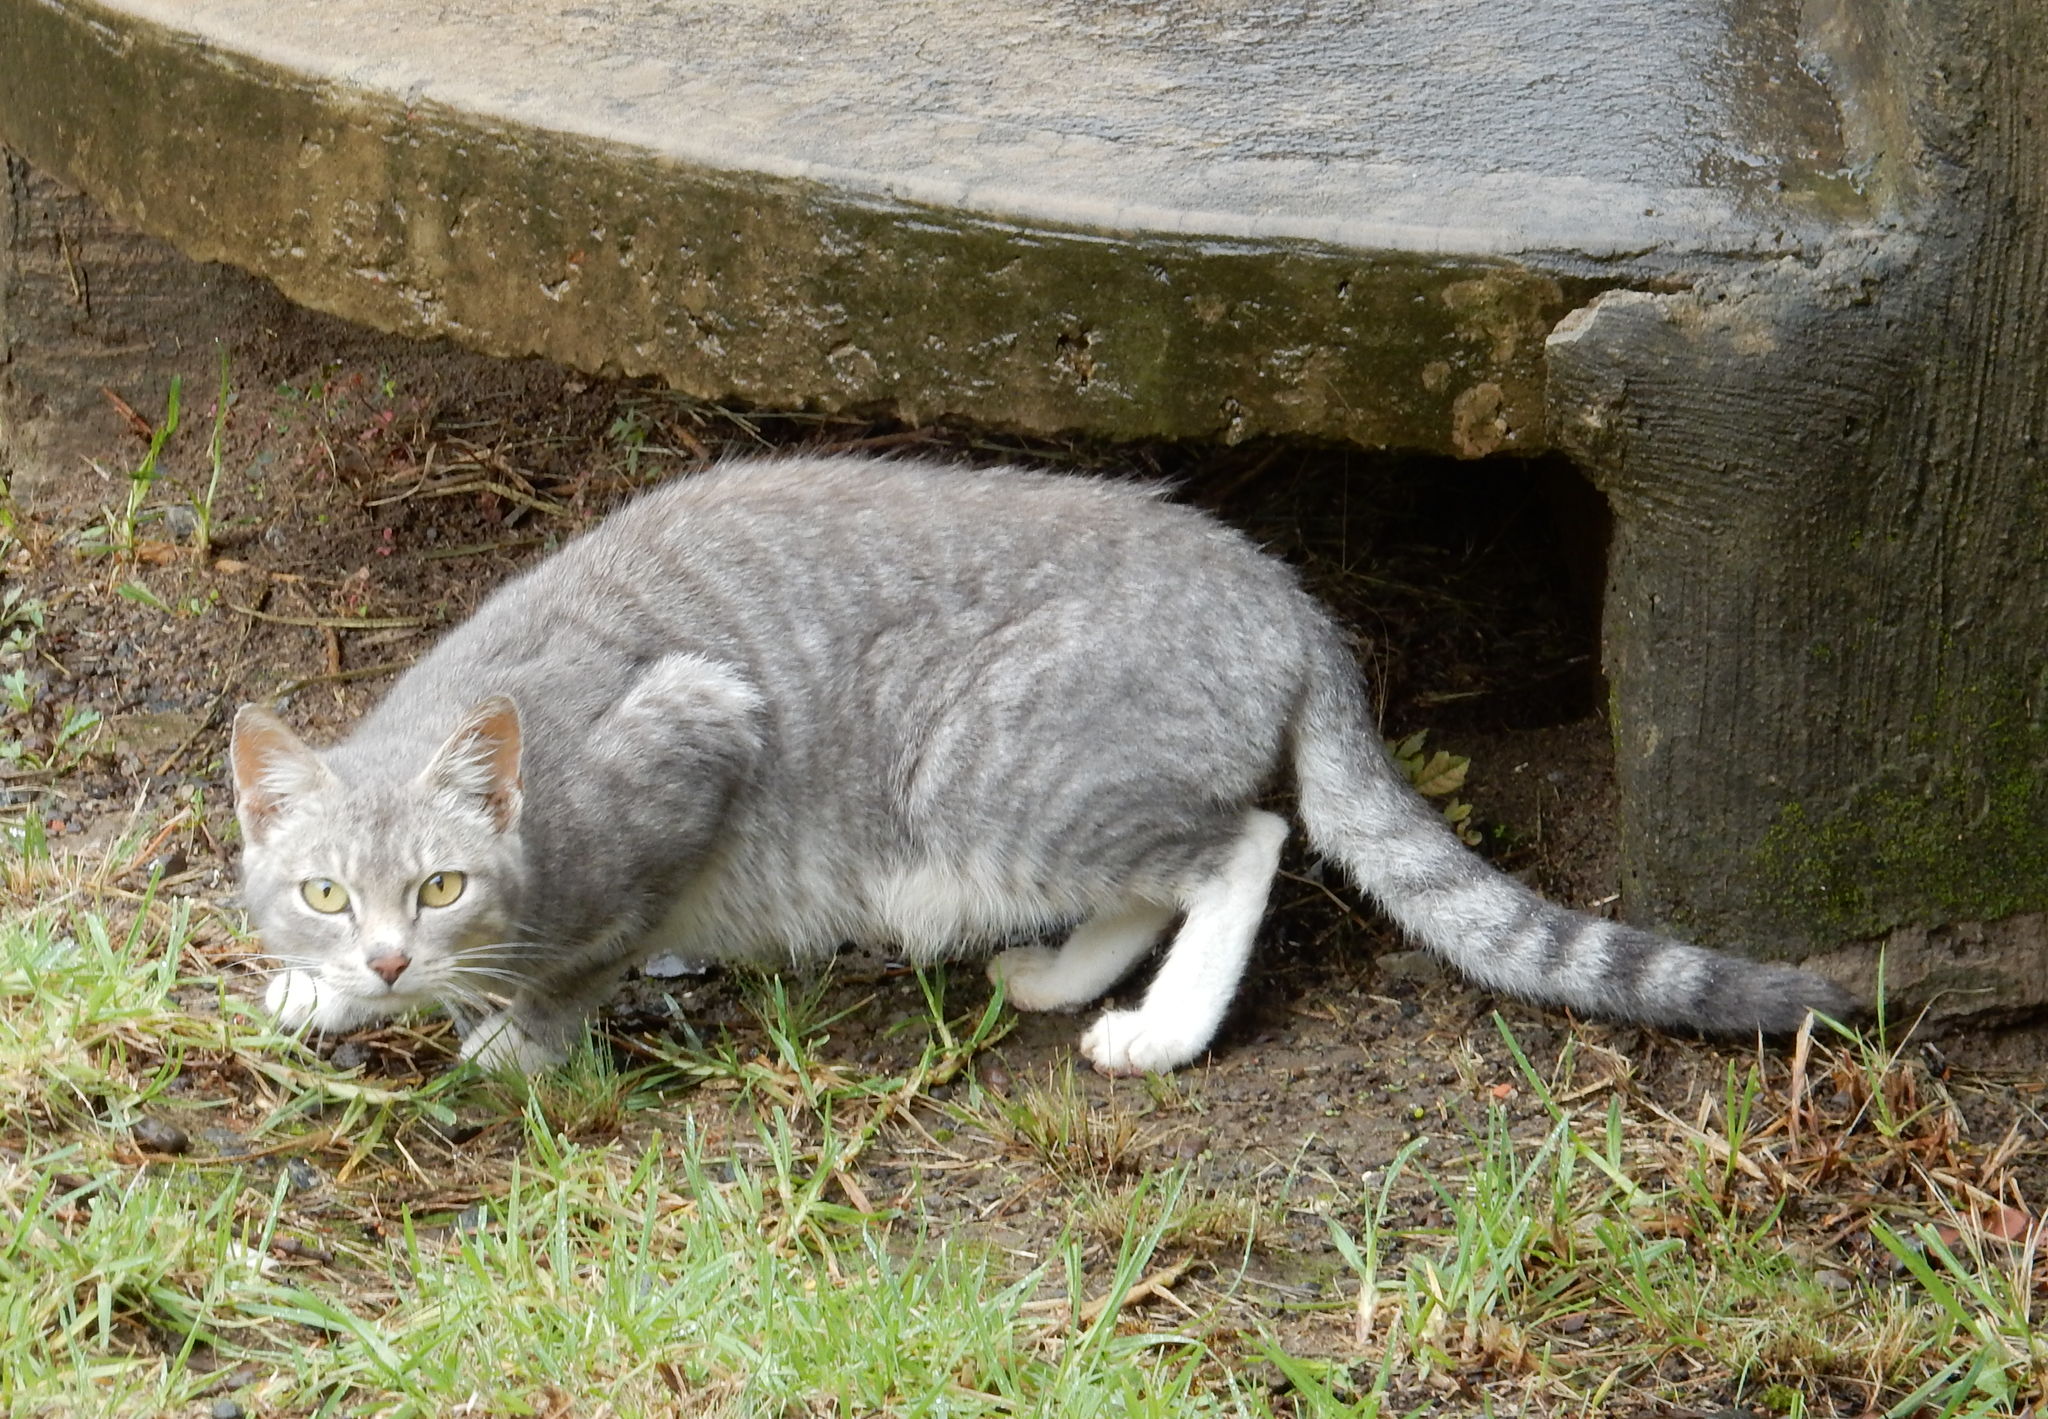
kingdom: Animalia
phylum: Chordata
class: Mammalia
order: Carnivora
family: Felidae
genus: Felis
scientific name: Felis catus
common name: Domestic cat
